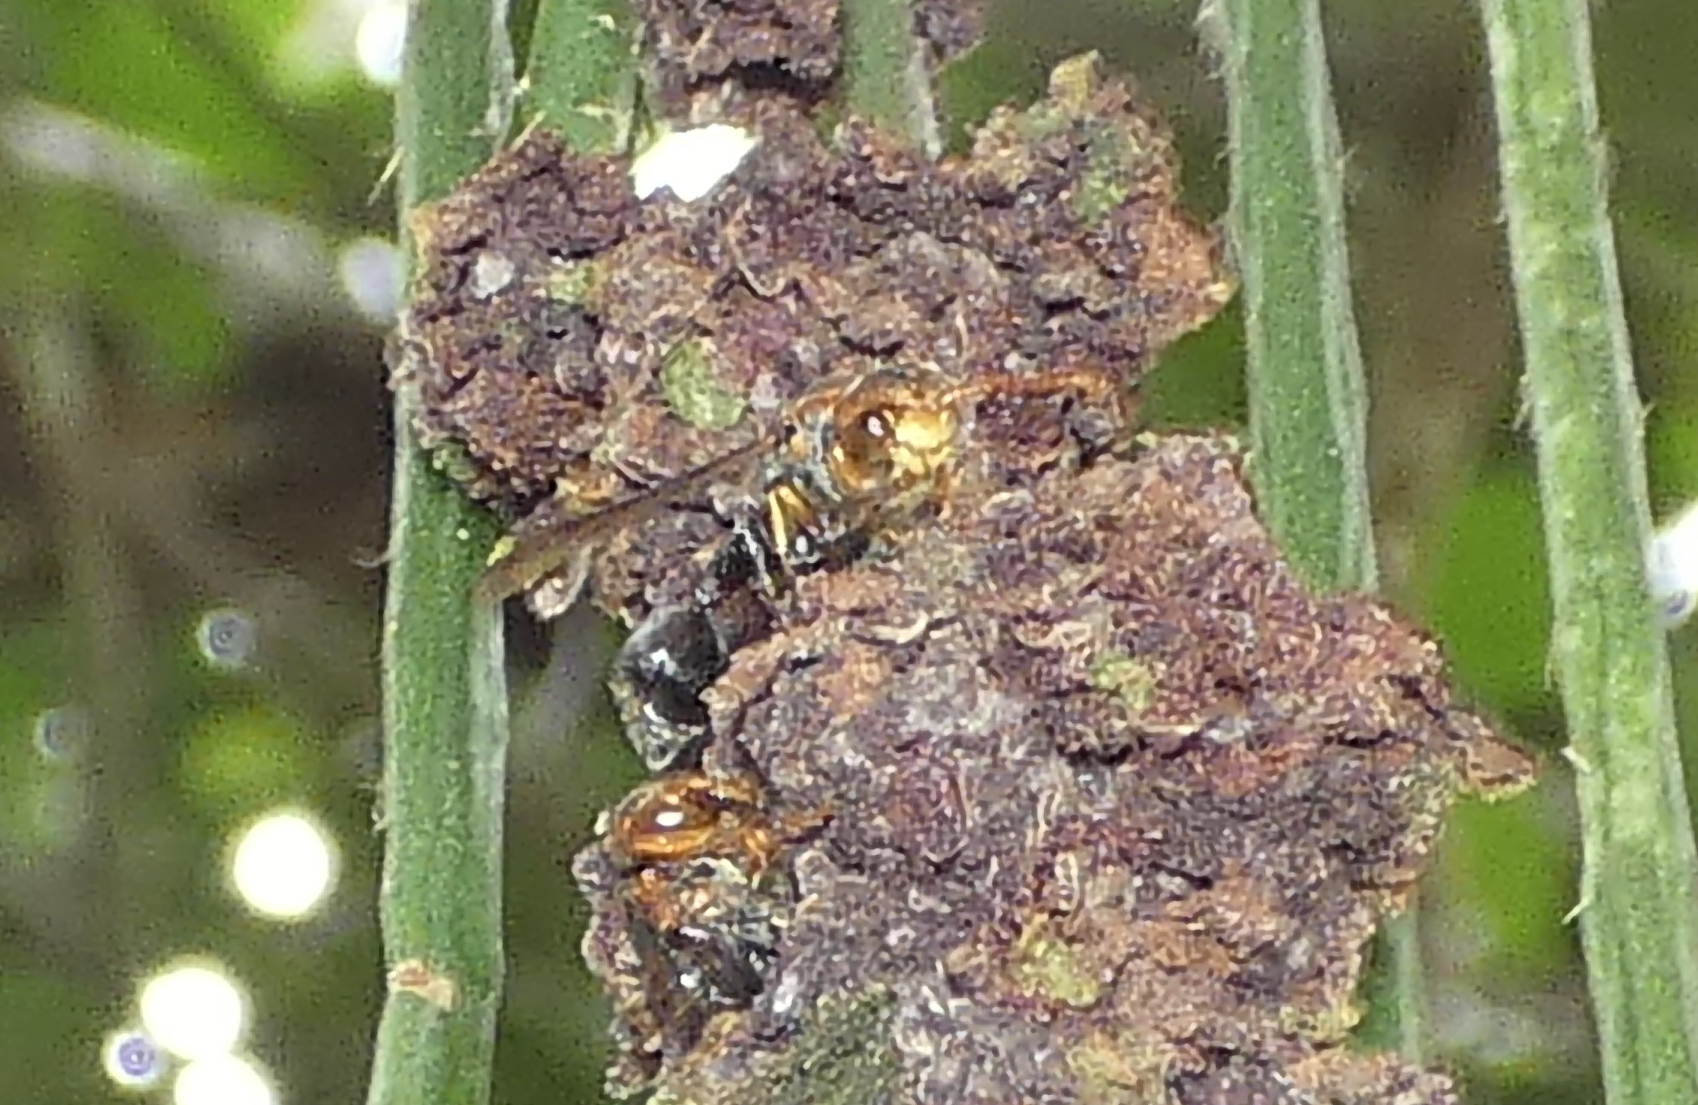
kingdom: Animalia
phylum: Arthropoda
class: Insecta
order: Hymenoptera
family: Eumenidae
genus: Zethus
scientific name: Zethus miniatus
